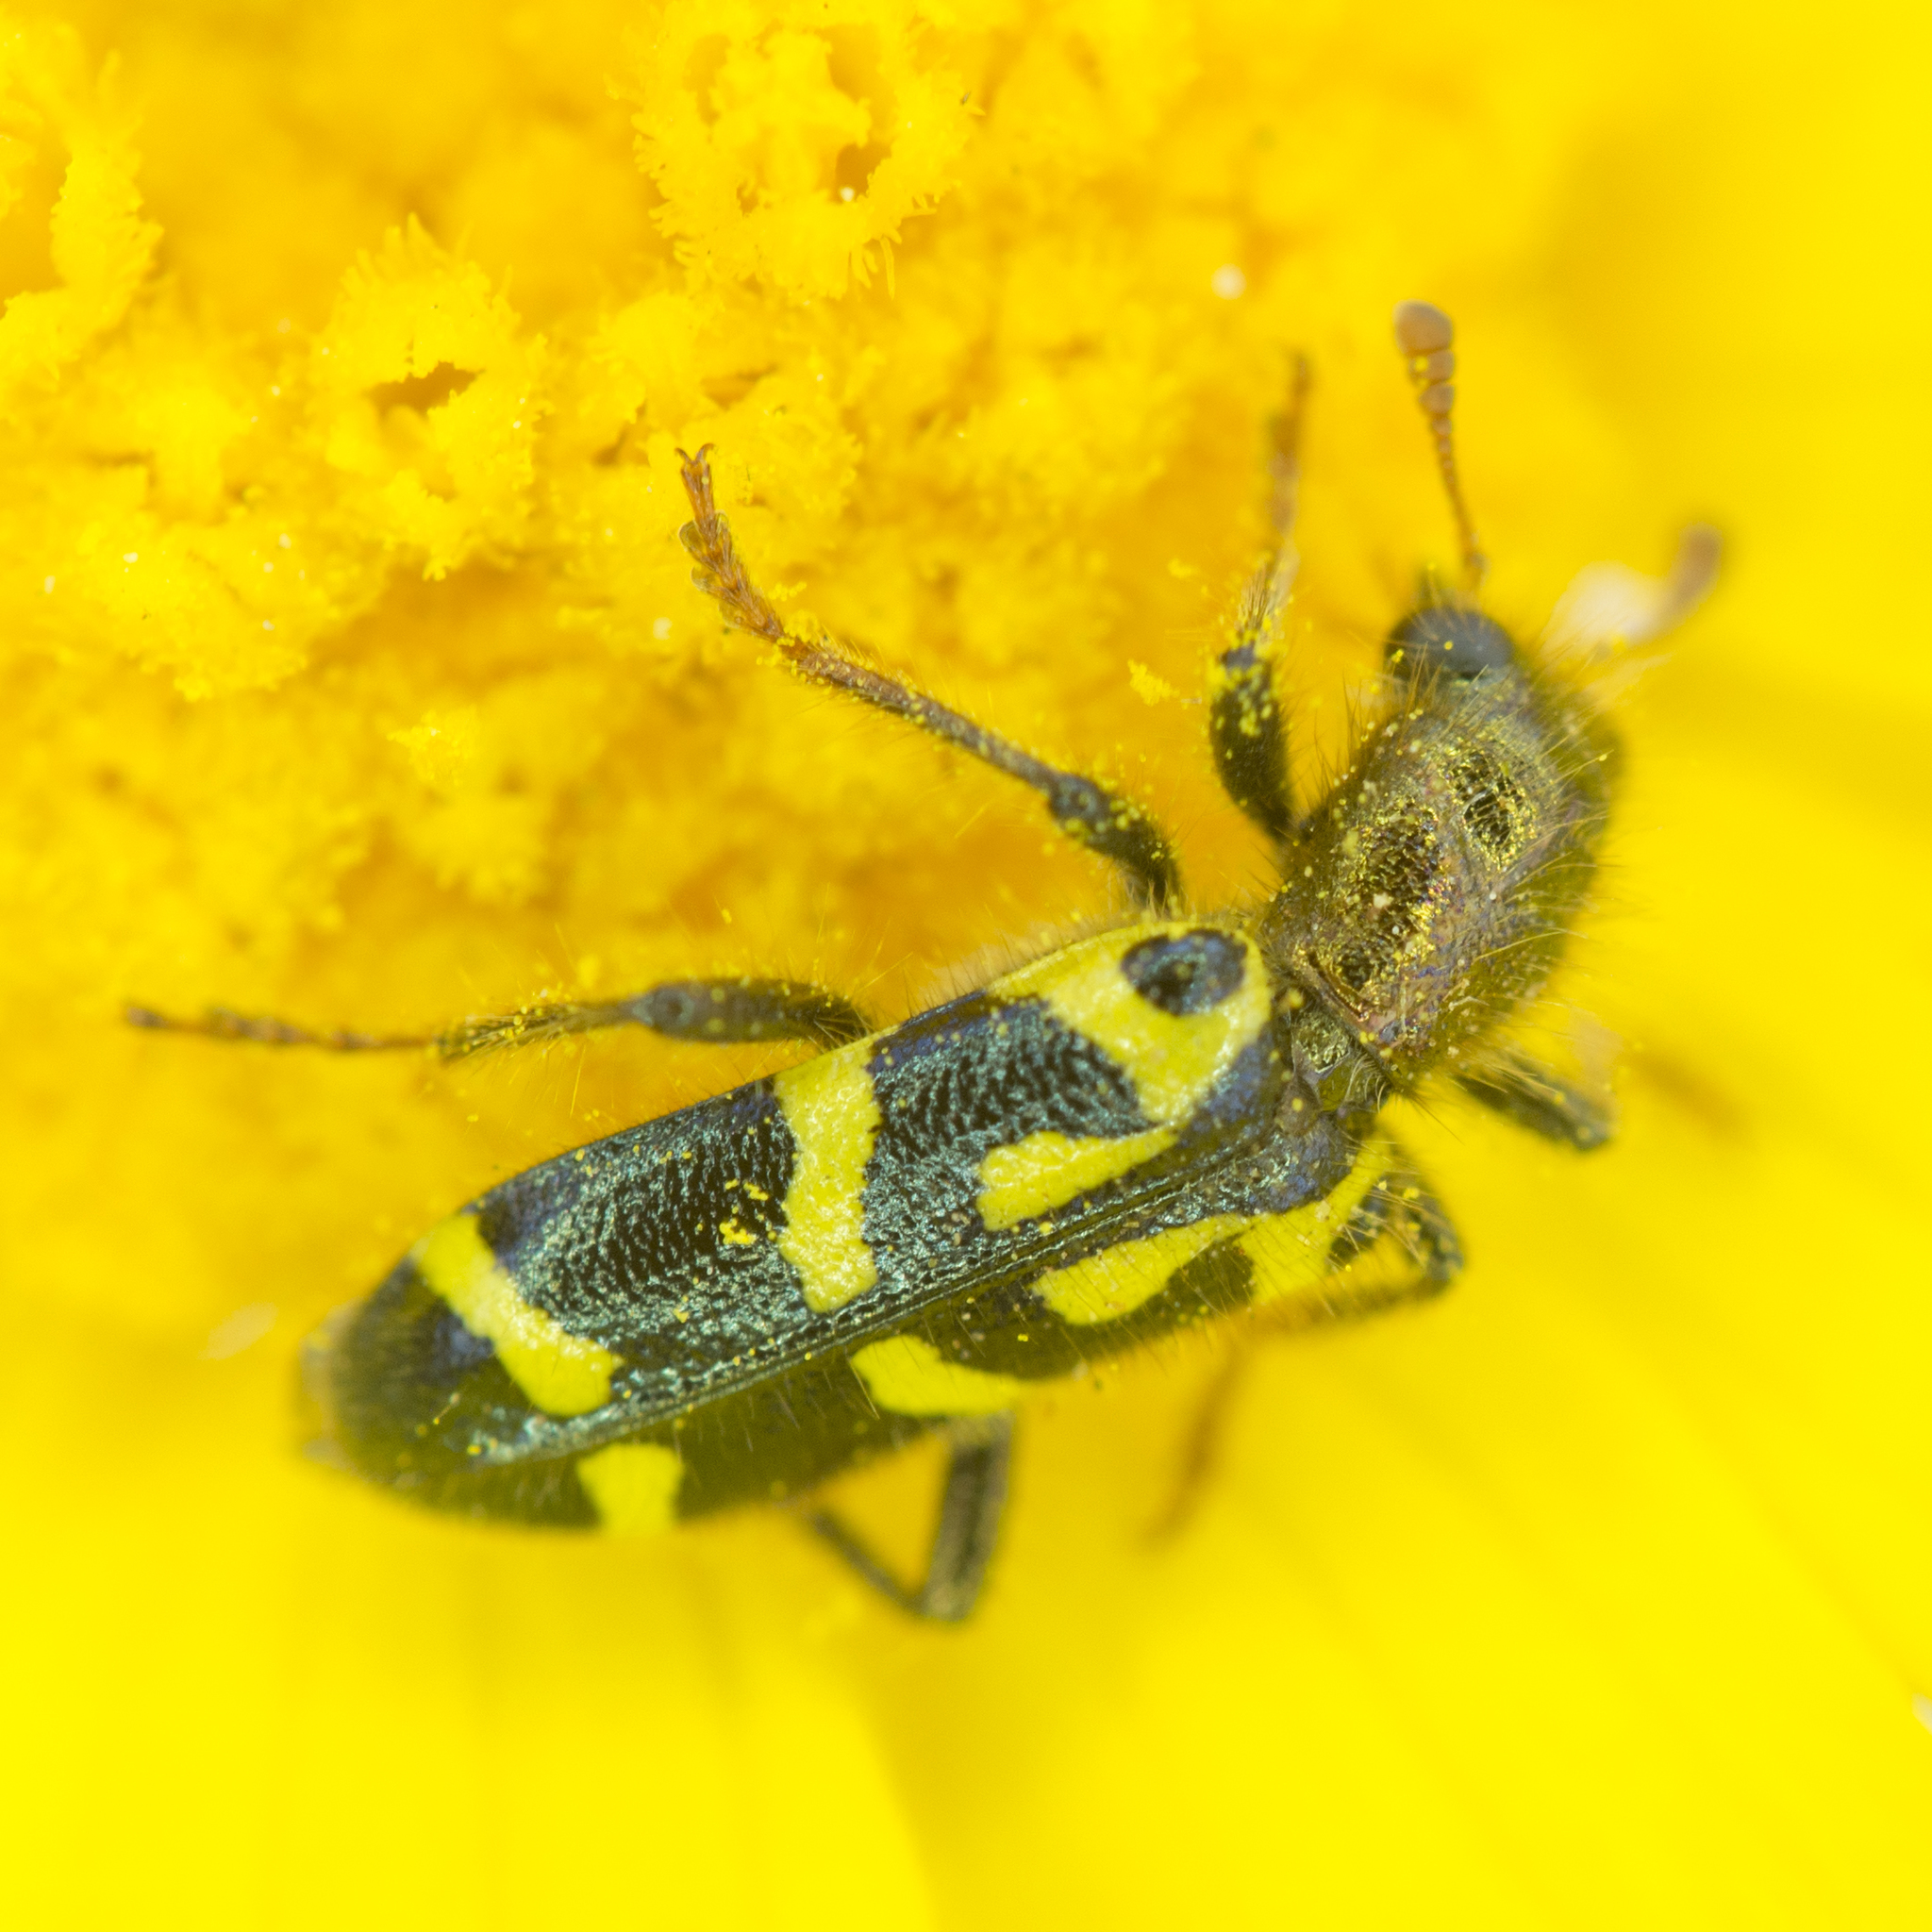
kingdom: Animalia
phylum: Arthropoda
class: Insecta
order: Coleoptera
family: Cleridae
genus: Trichodes
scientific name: Trichodes ornatus
